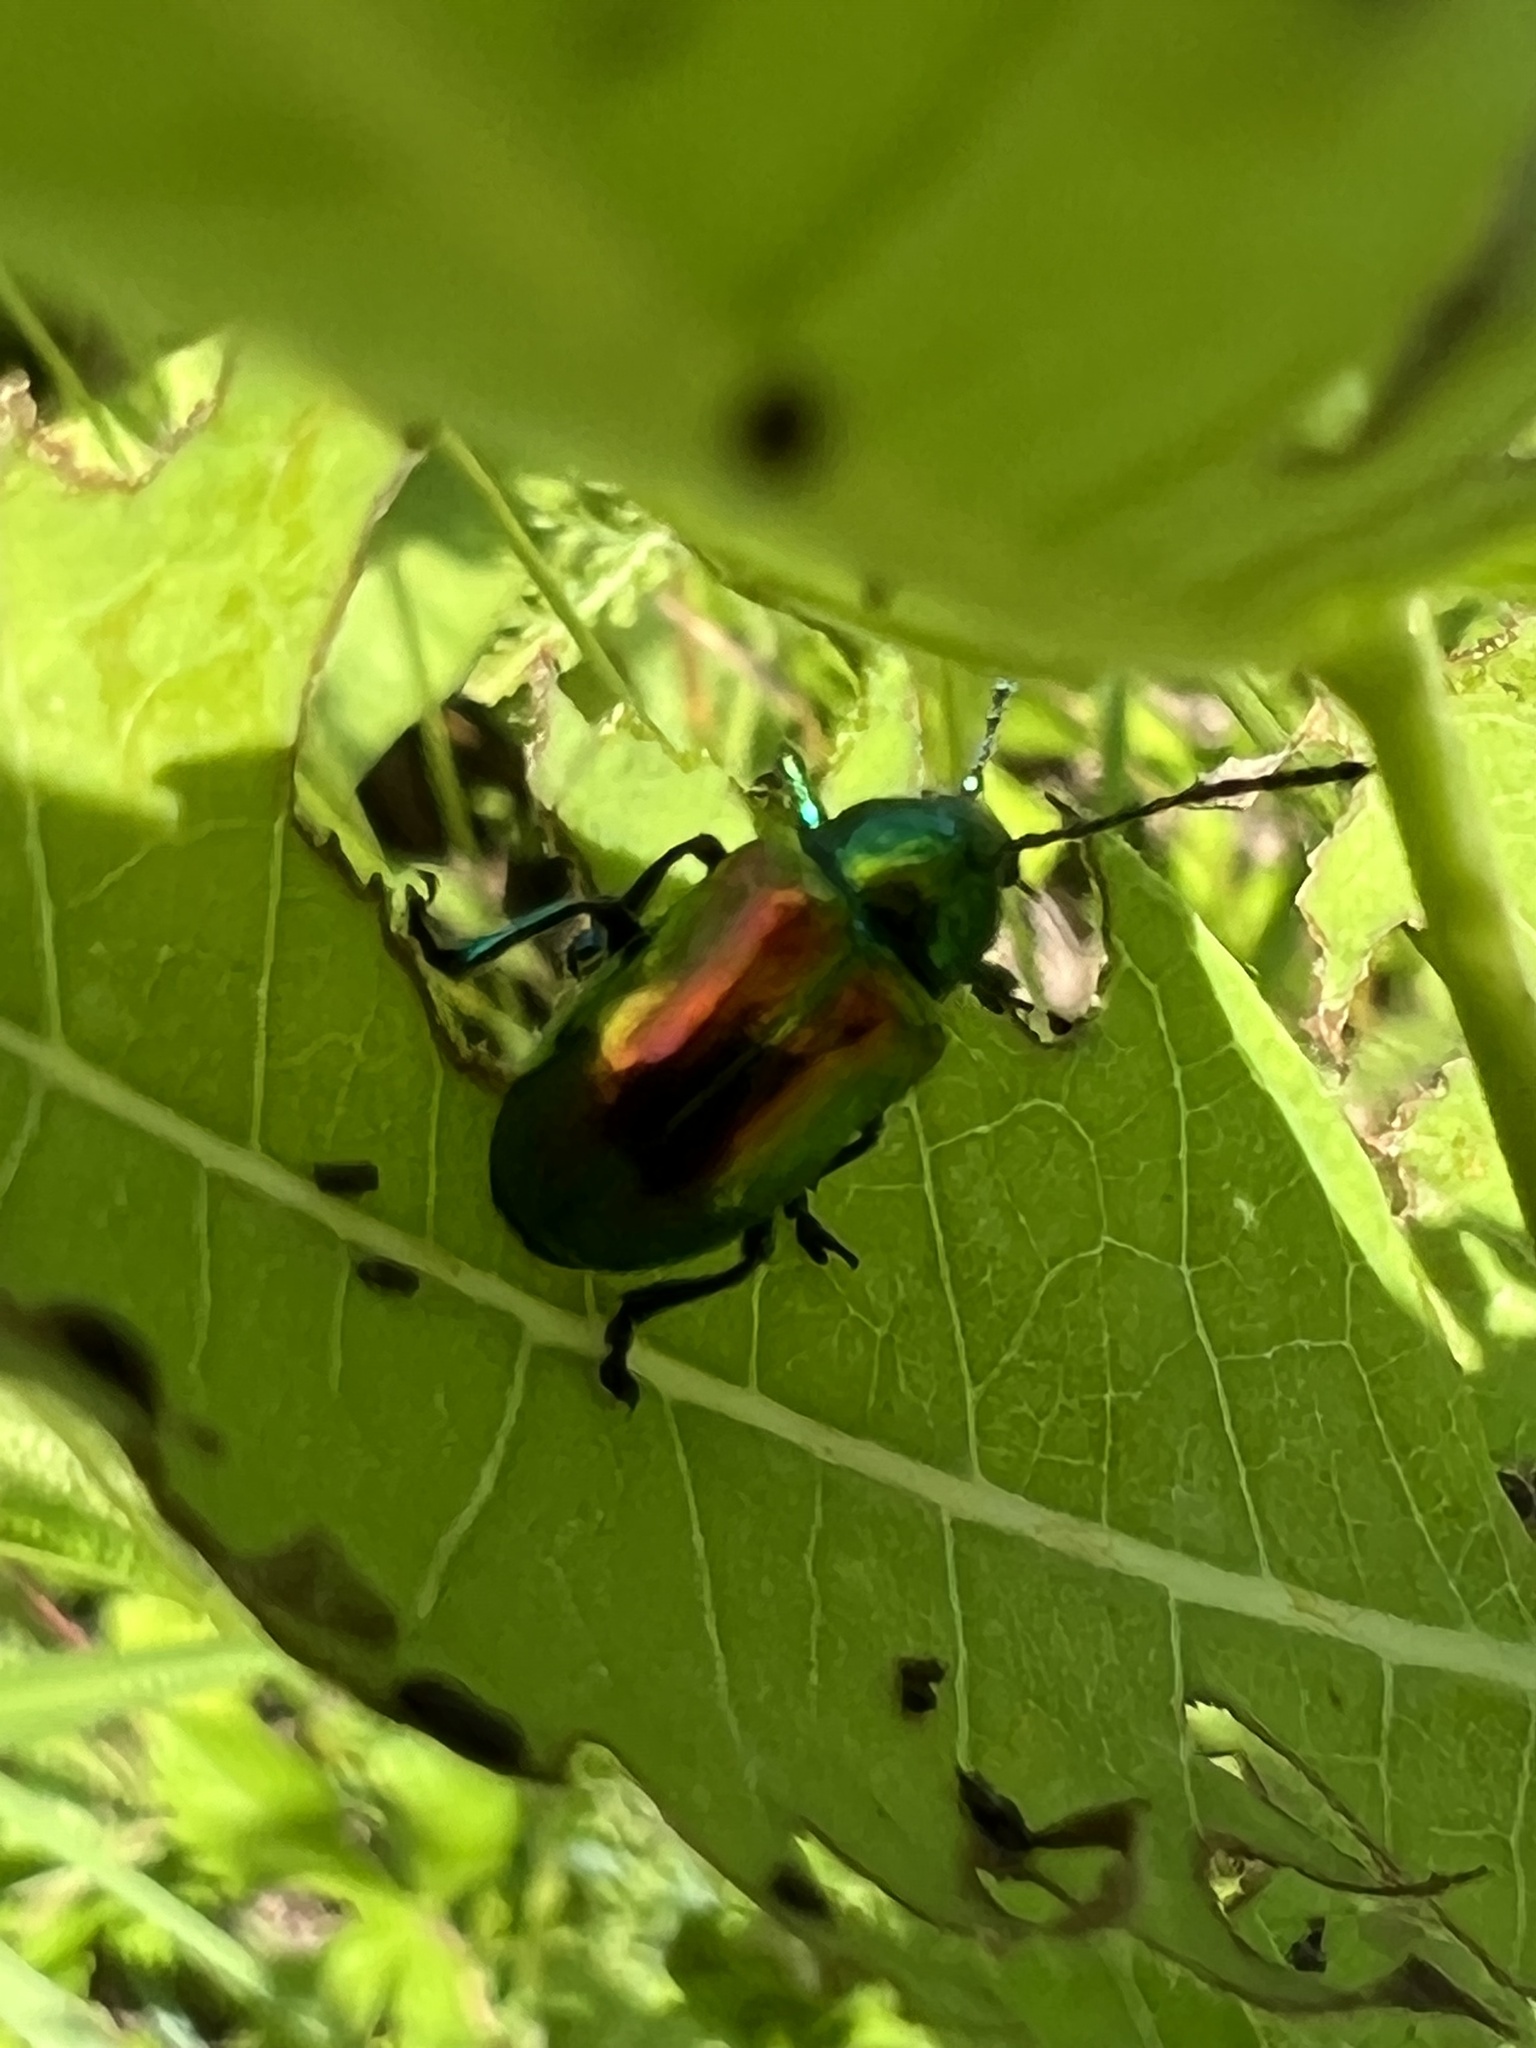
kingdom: Animalia
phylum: Arthropoda
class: Insecta
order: Coleoptera
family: Chrysomelidae
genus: Chrysochus
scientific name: Chrysochus auratus
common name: Dogbane leaf beetle
